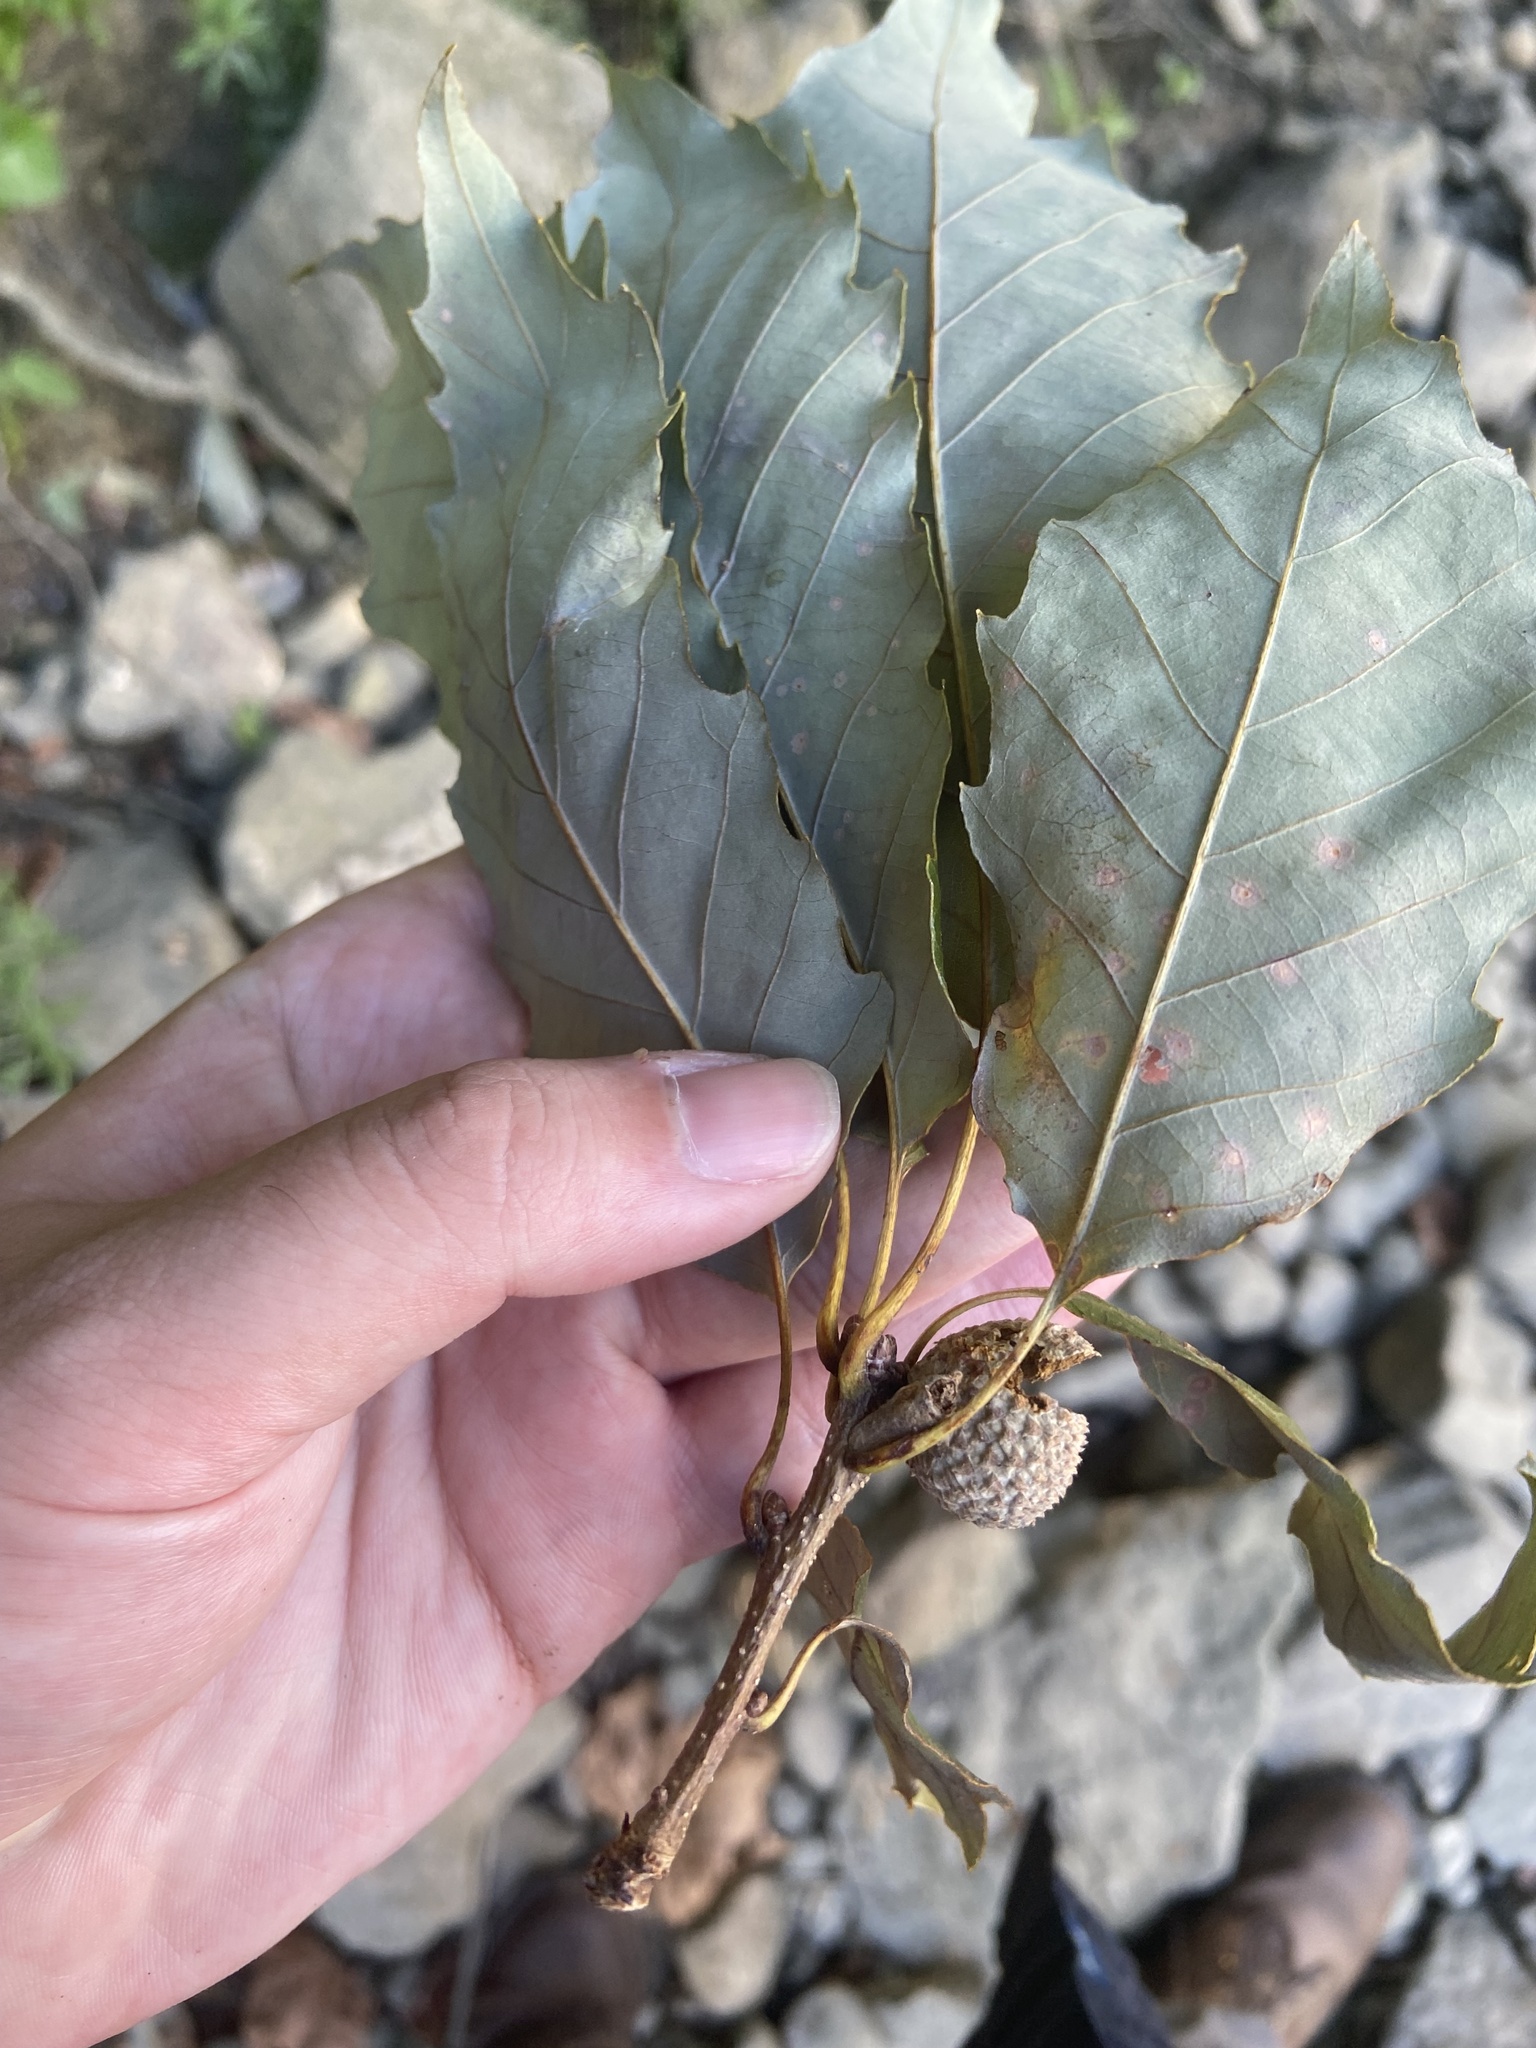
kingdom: Plantae
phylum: Tracheophyta
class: Magnoliopsida
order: Fagales
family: Fagaceae
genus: Quercus
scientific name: Quercus muehlenbergii
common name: Chinkapin oak
